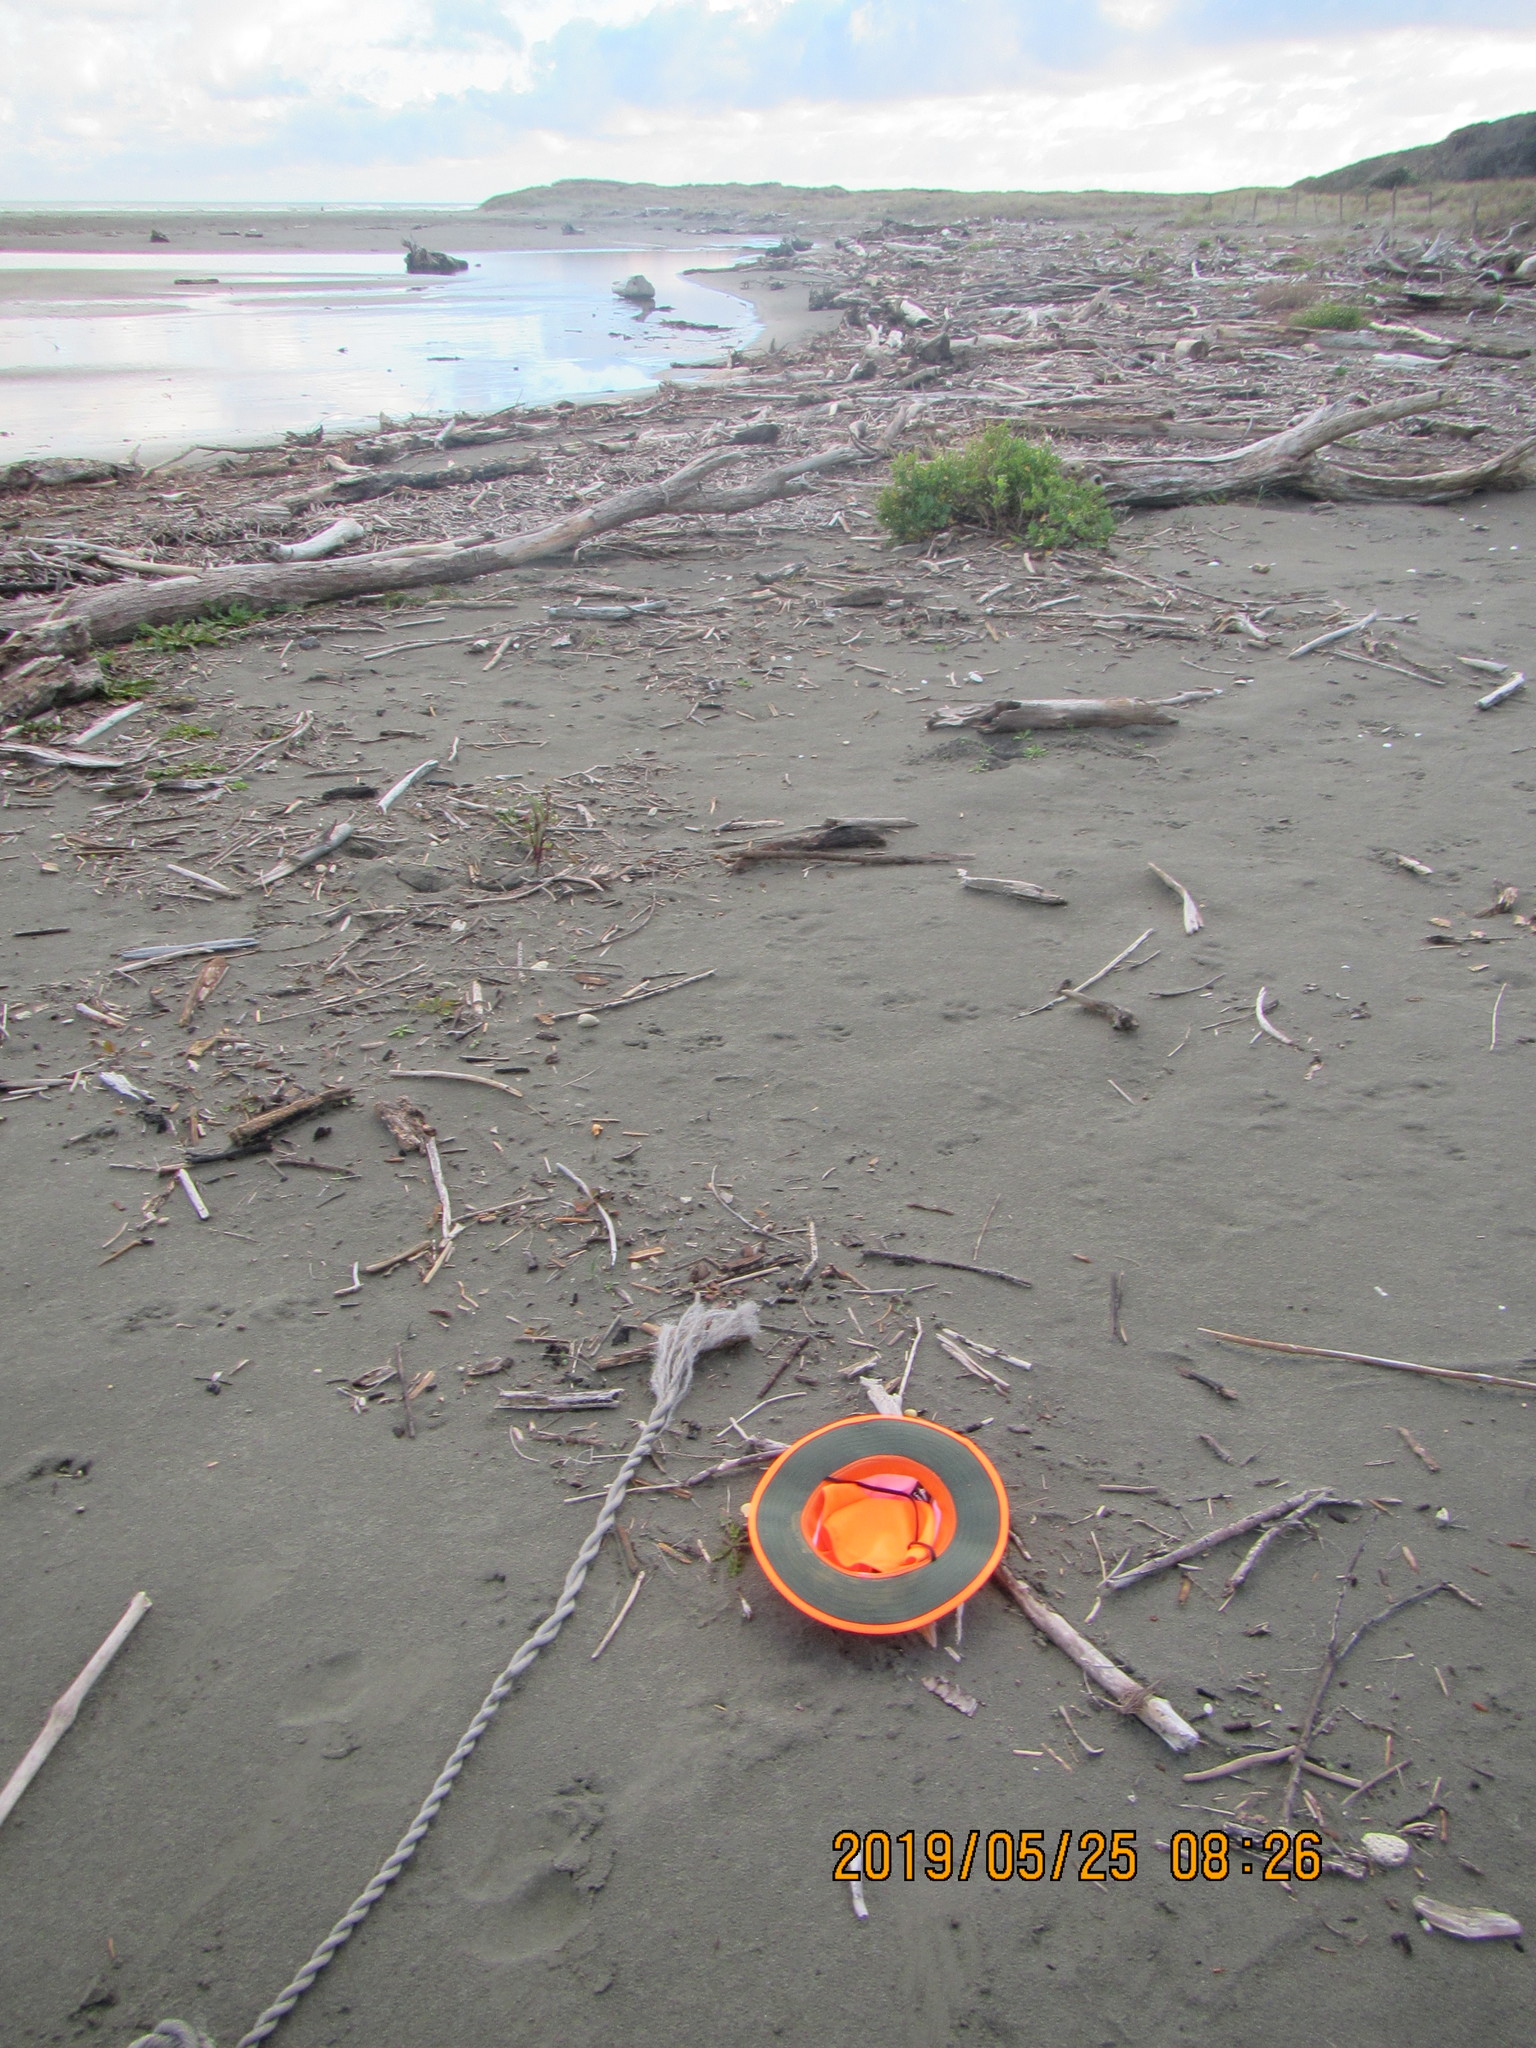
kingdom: Fungi
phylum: Basidiomycota
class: Agaricomycetes
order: Agaricales
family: Bolbitiaceae
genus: Bolbitius
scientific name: Bolbitius titubans
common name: Yellow fieldcap
